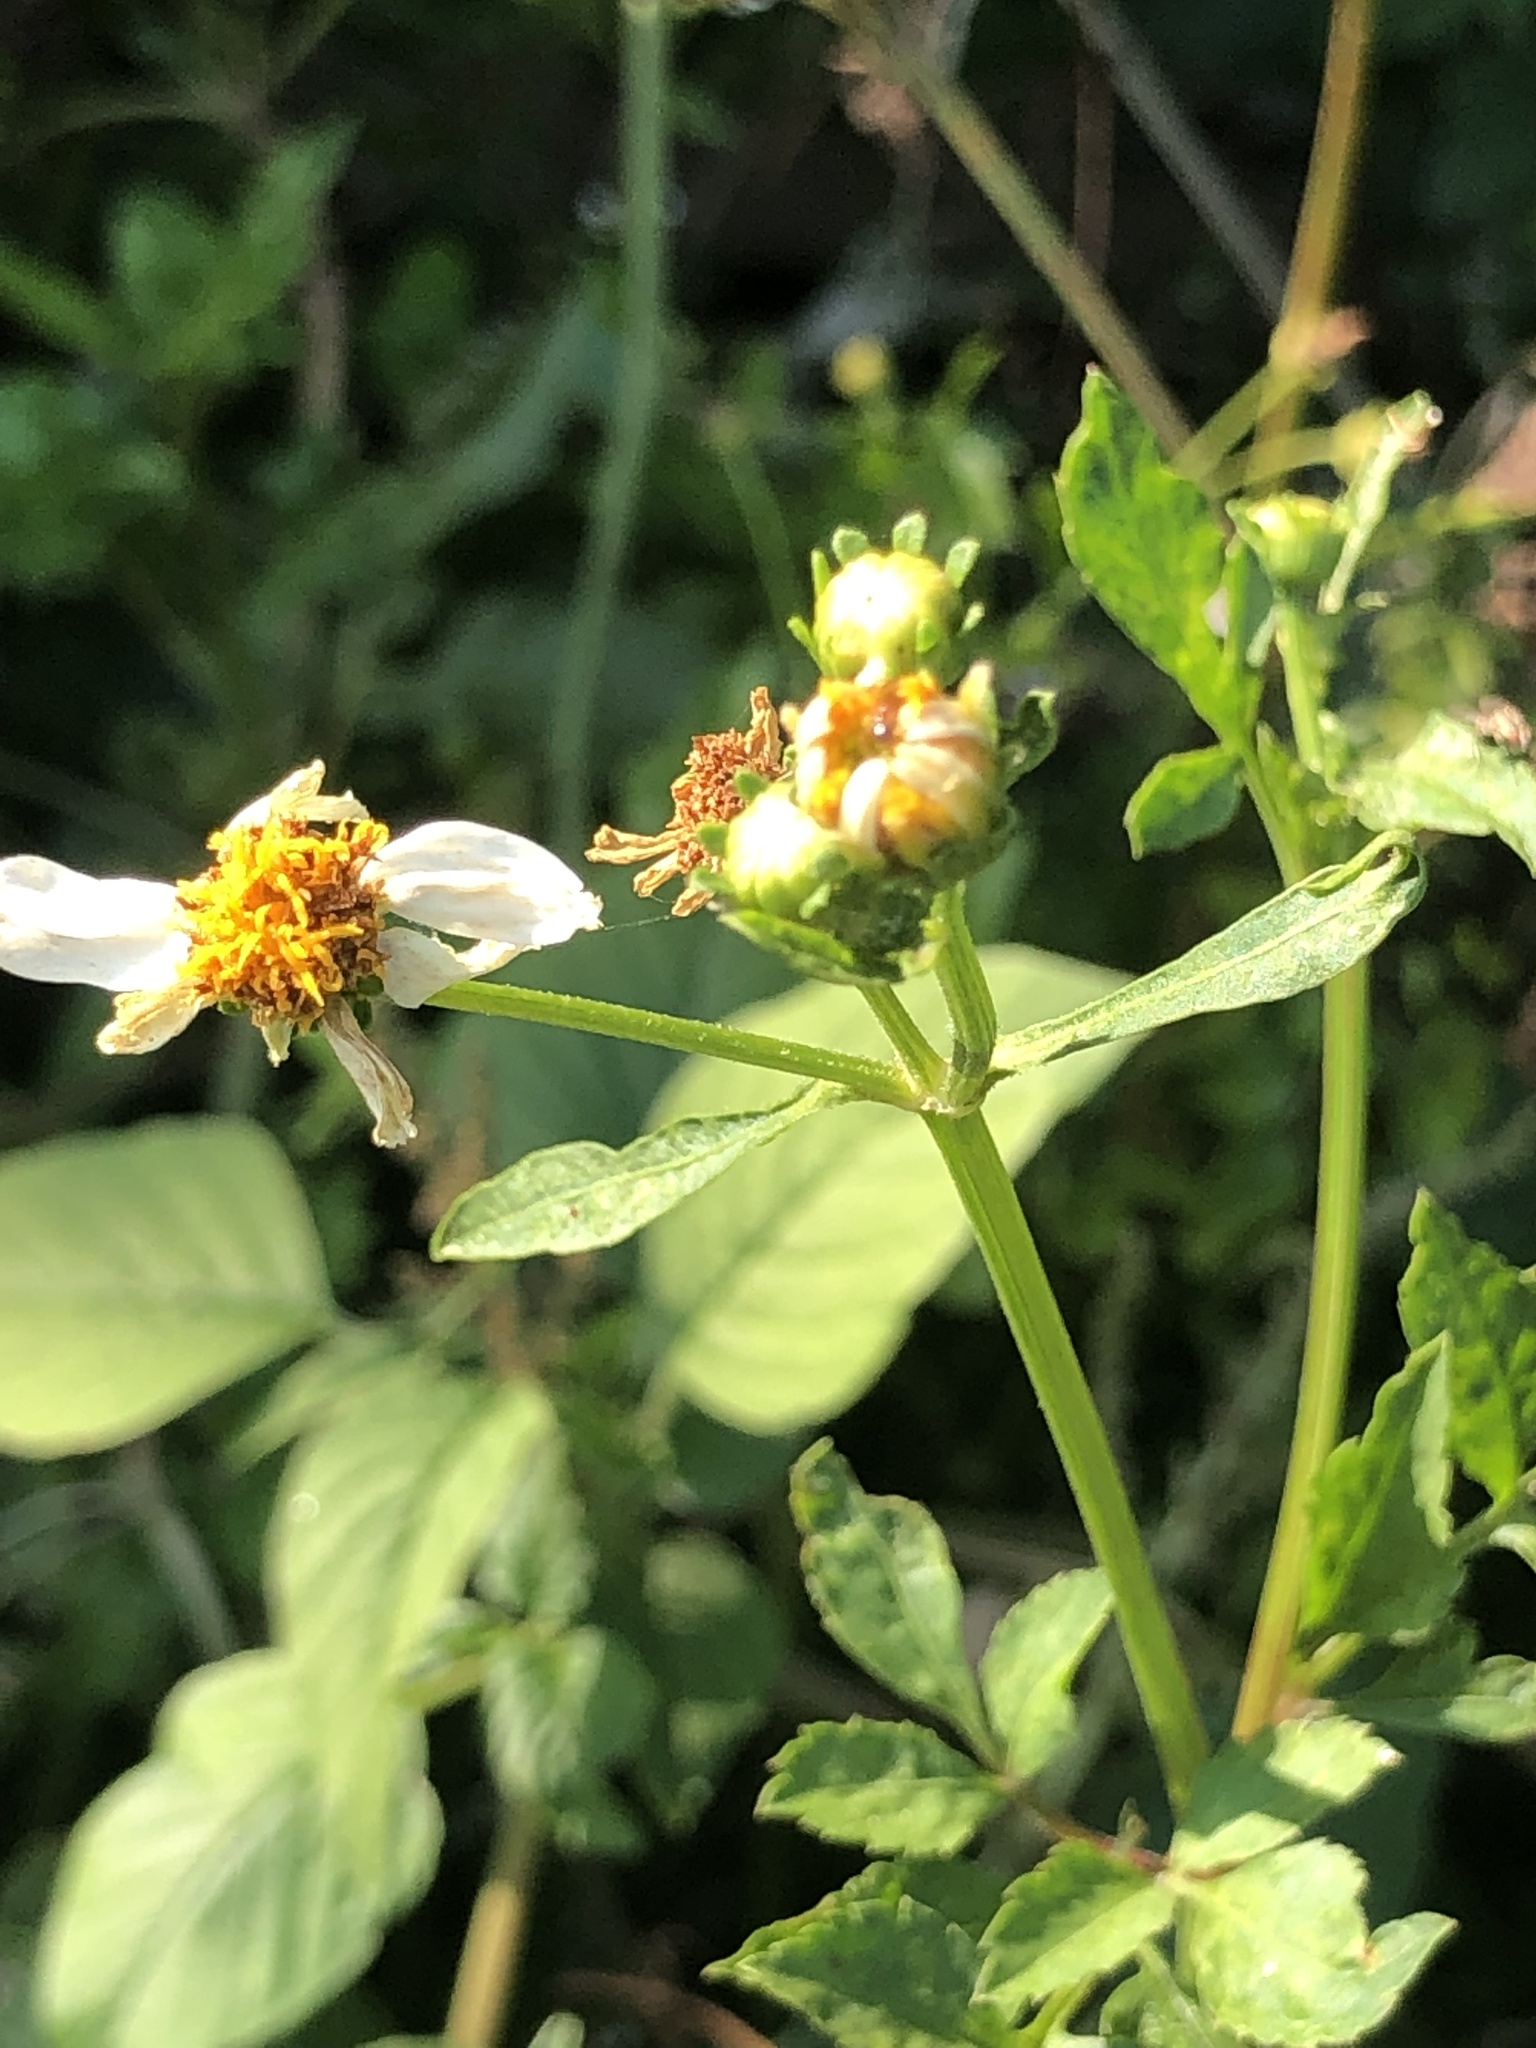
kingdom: Plantae
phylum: Tracheophyta
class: Magnoliopsida
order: Asterales
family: Asteraceae
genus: Bidens
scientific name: Bidens alba
